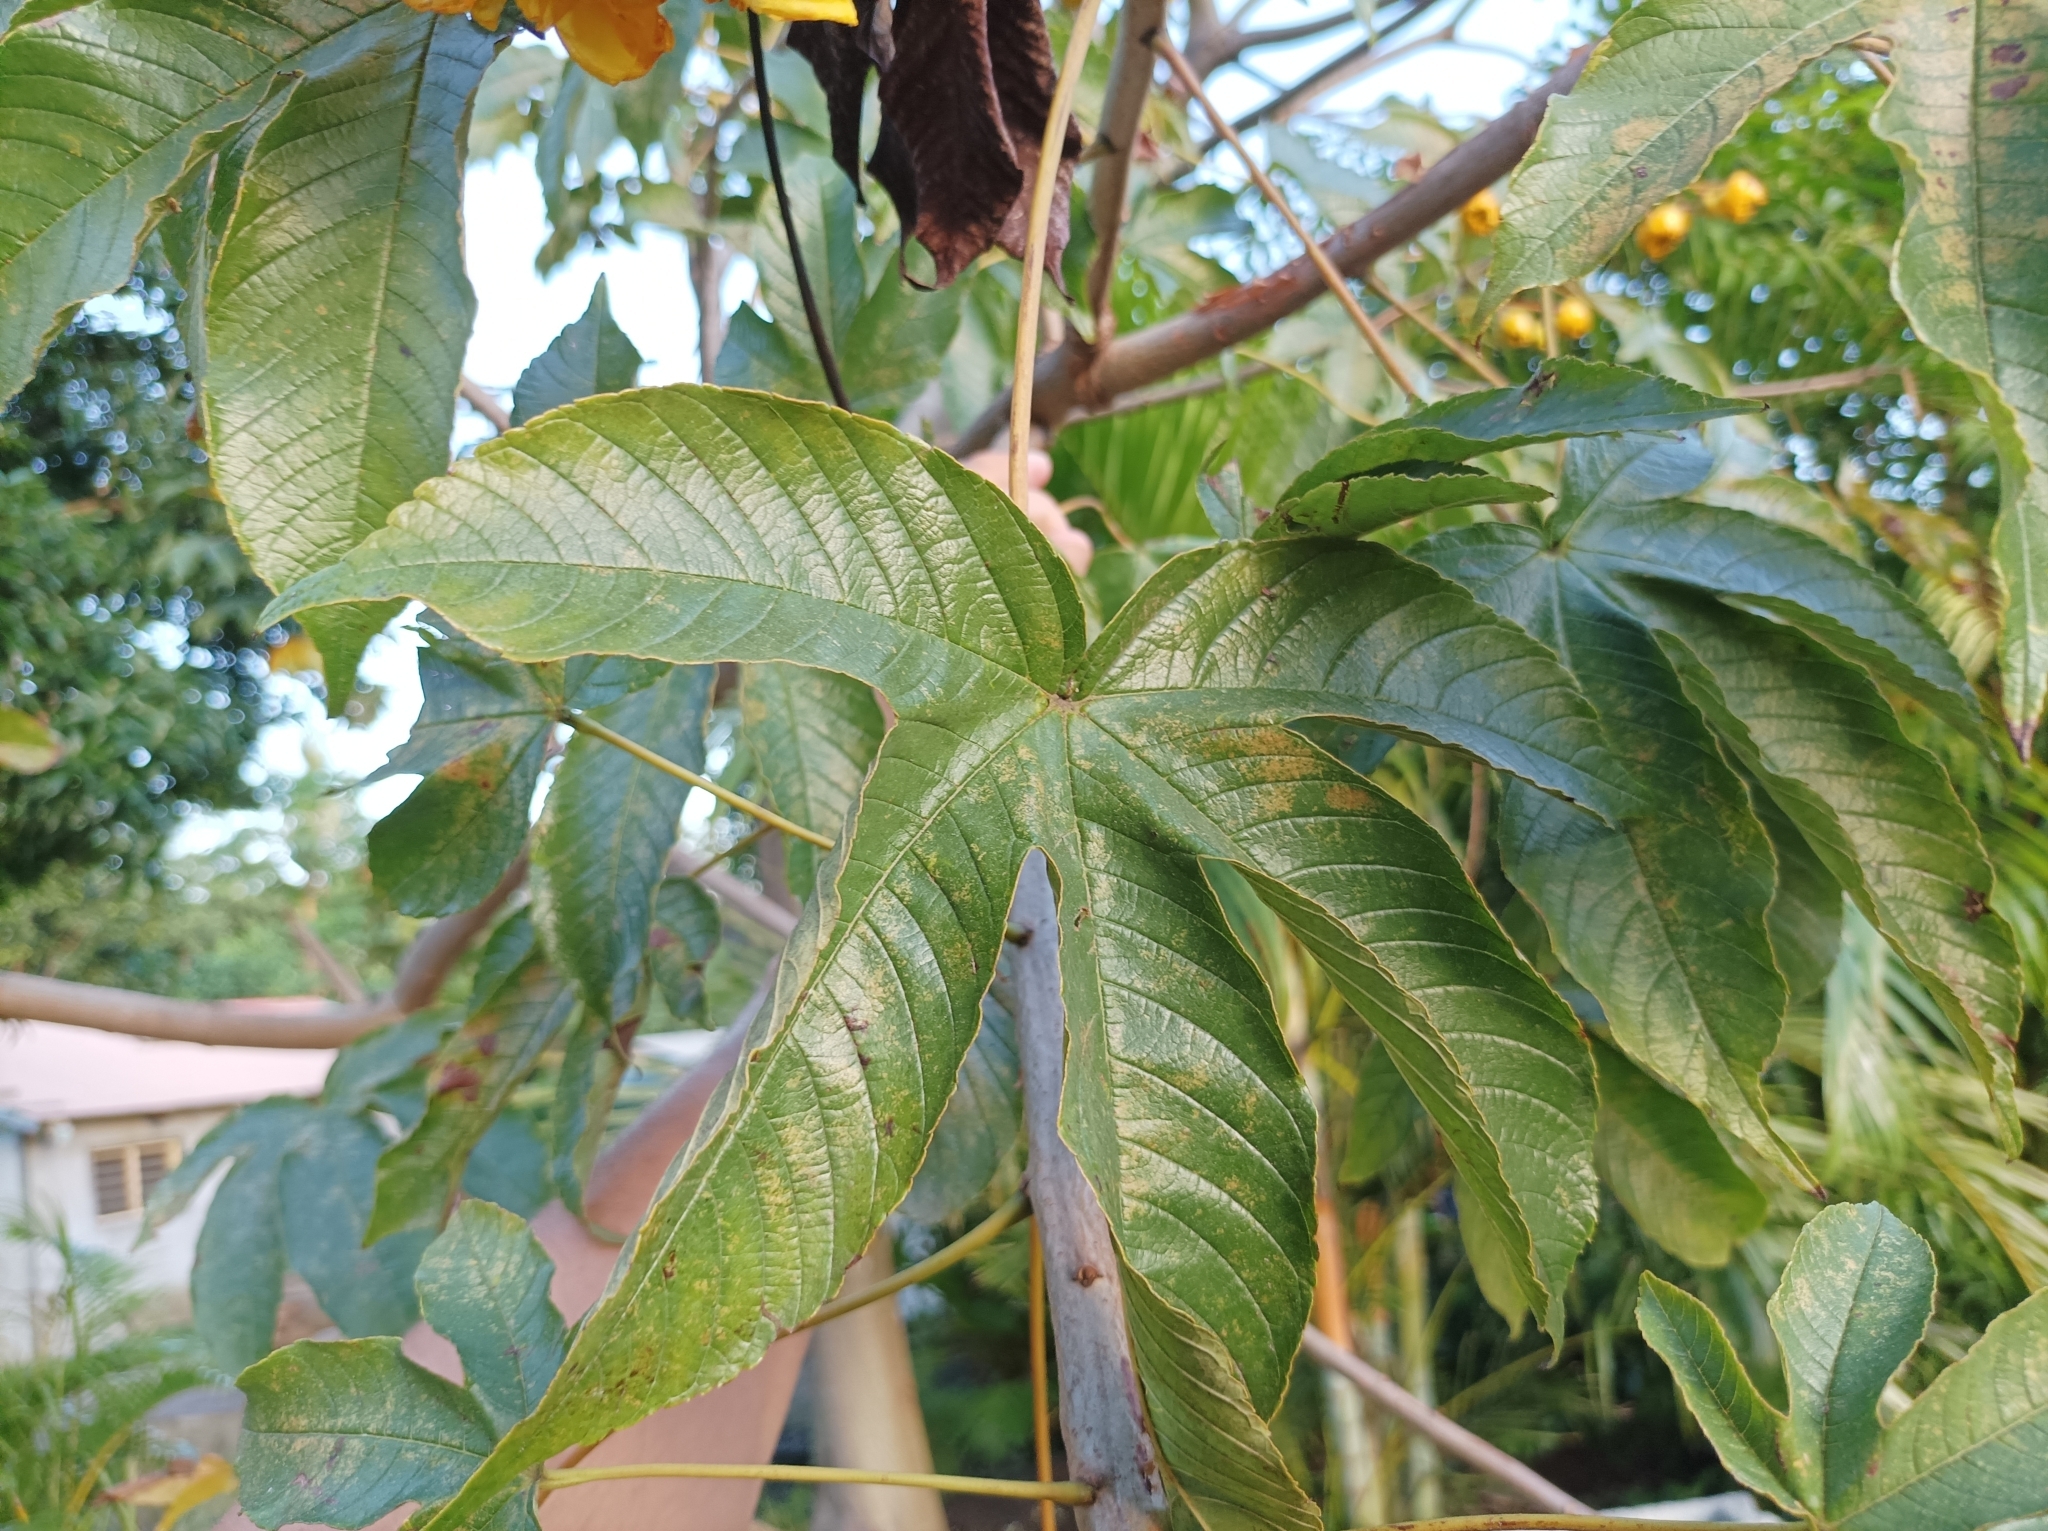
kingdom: Plantae
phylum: Tracheophyta
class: Magnoliopsida
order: Malvales
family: Cochlospermaceae
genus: Cochlospermum
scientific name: Cochlospermum vitifolium
